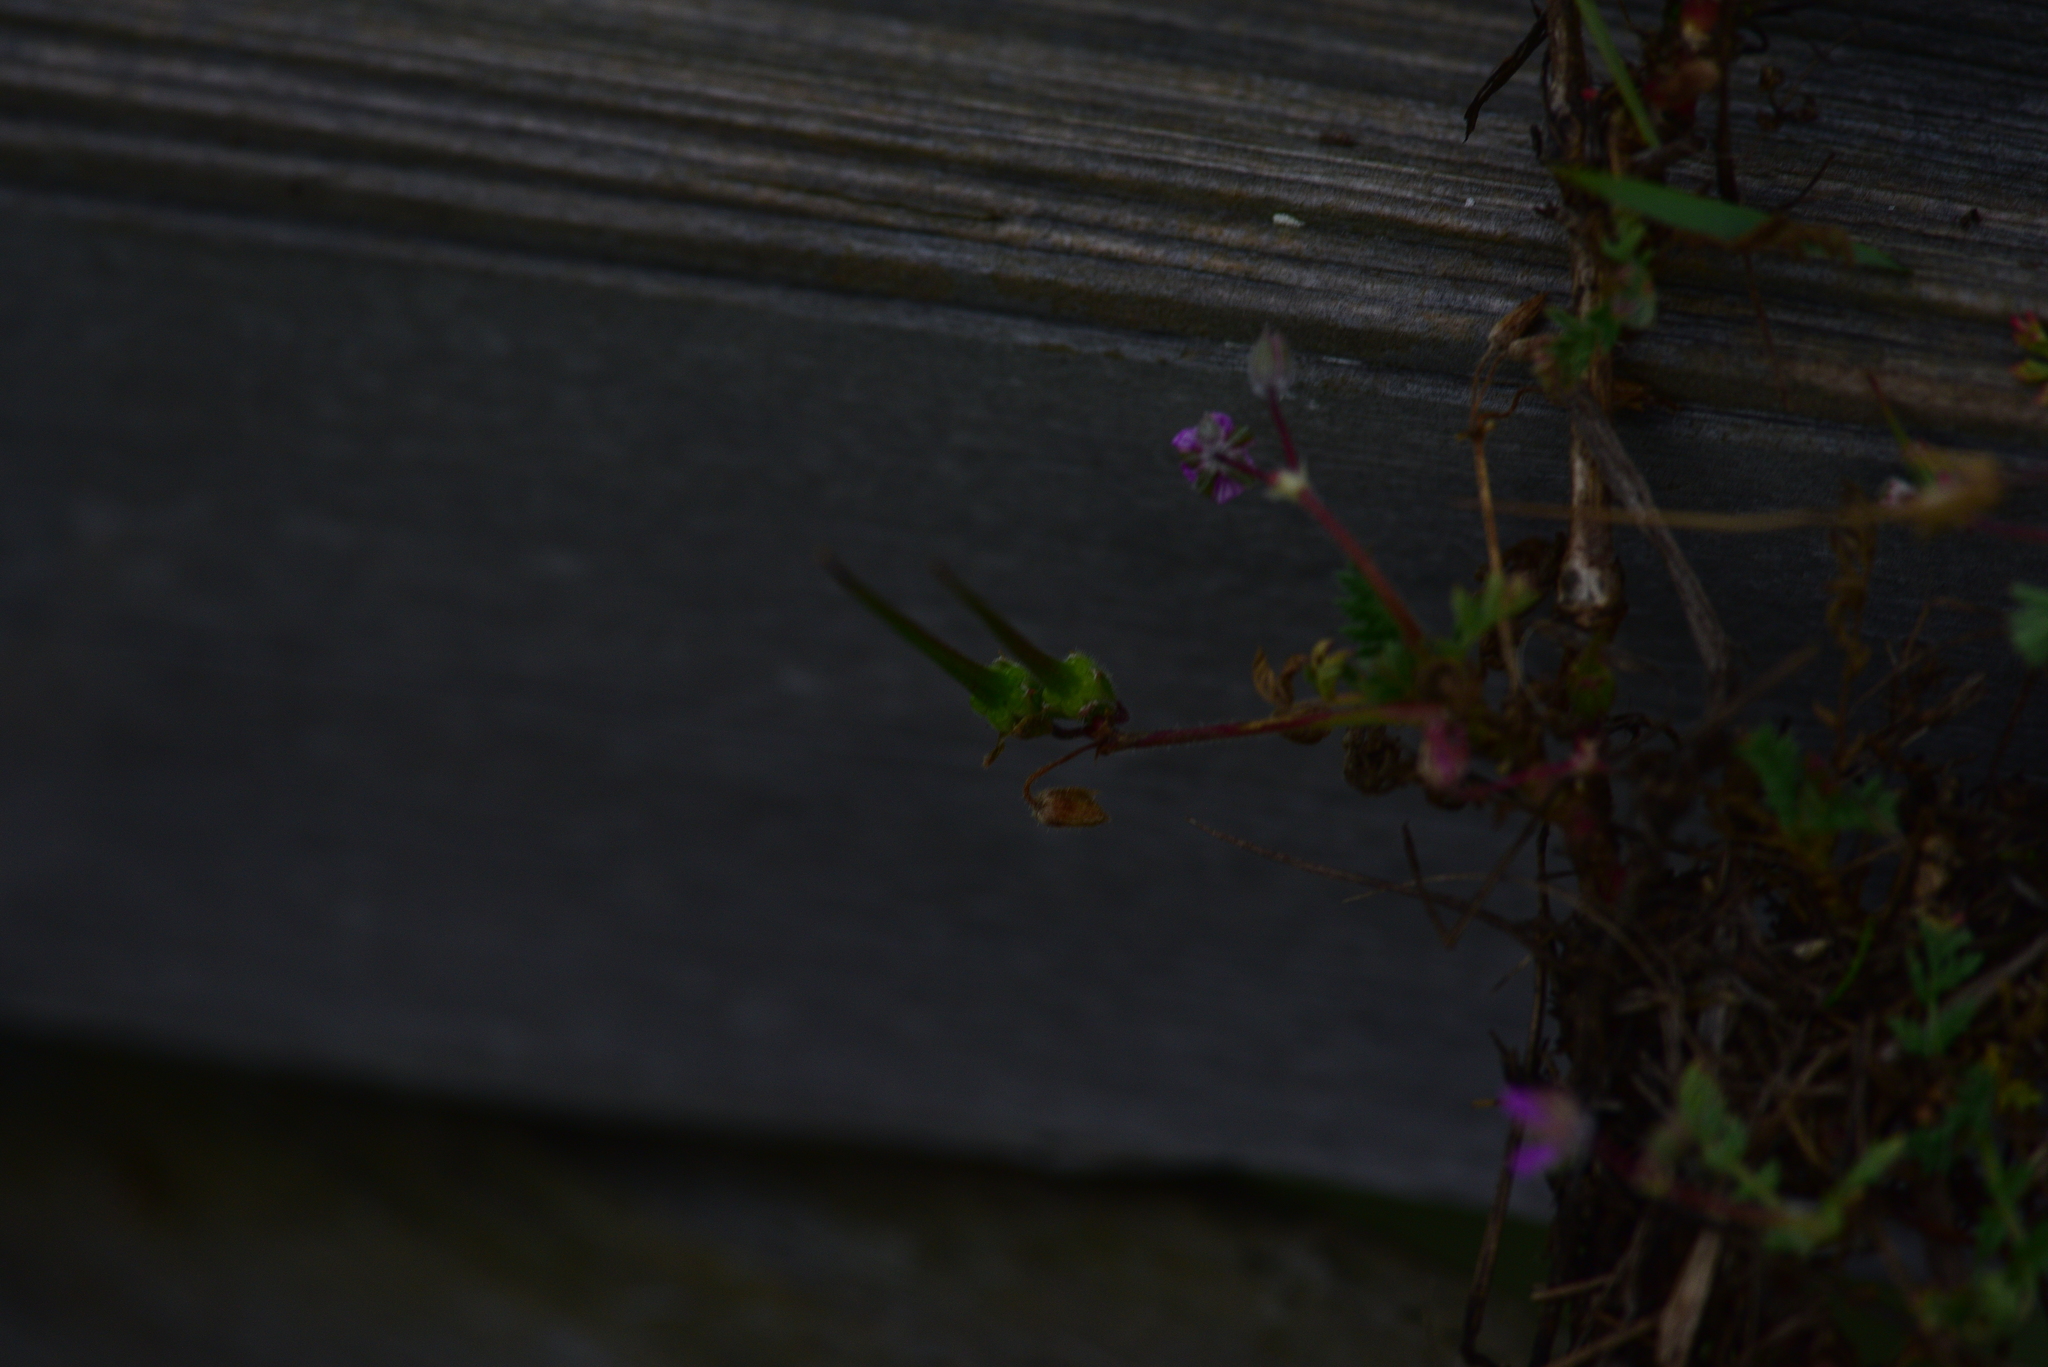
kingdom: Plantae
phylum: Tracheophyta
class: Magnoliopsida
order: Geraniales
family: Geraniaceae
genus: Erodium
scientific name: Erodium cicutarium
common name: Common stork's-bill
